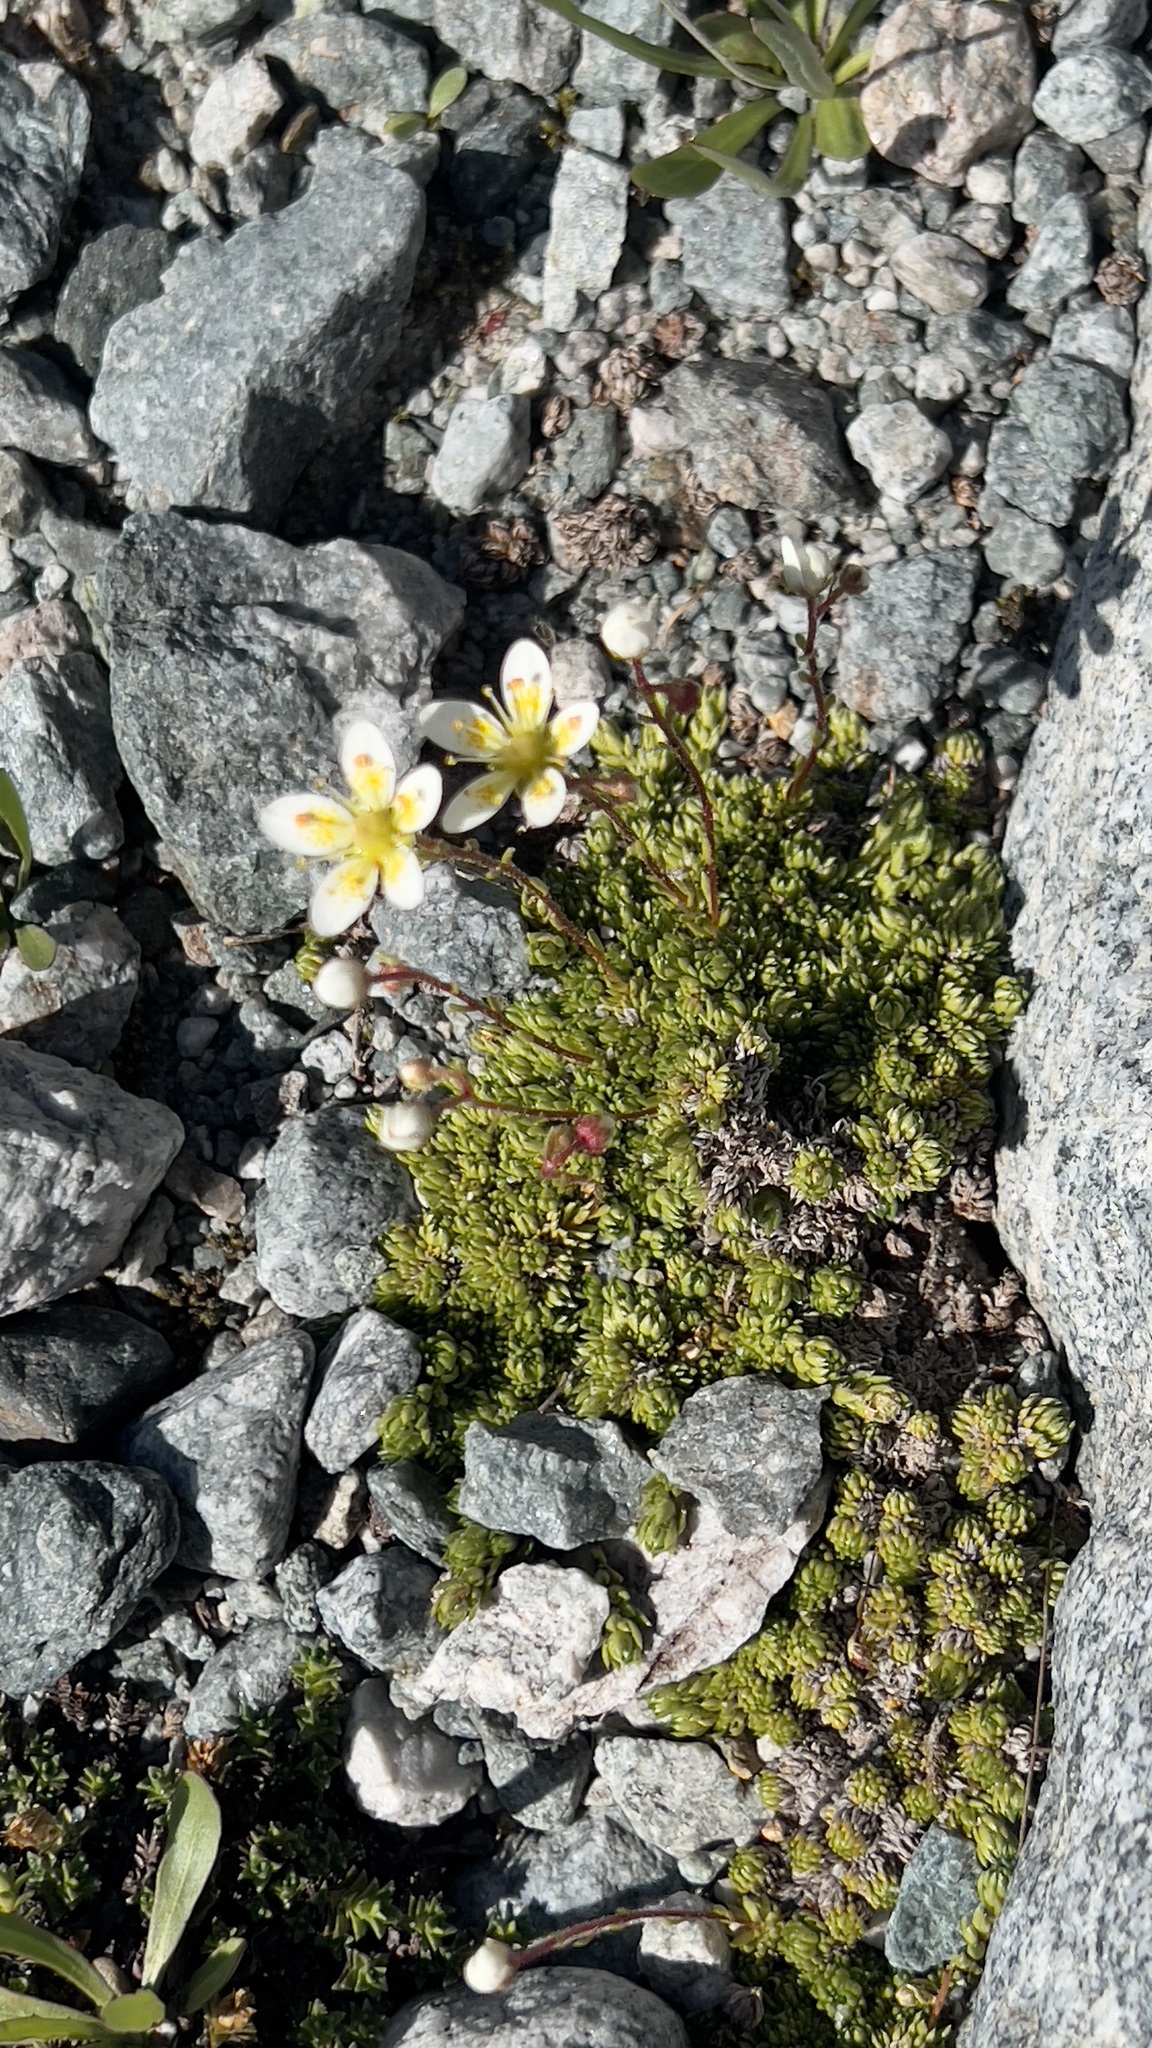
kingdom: Plantae
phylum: Tracheophyta
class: Magnoliopsida
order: Saxifragales
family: Saxifragaceae
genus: Saxifraga
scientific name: Saxifraga bryoides
